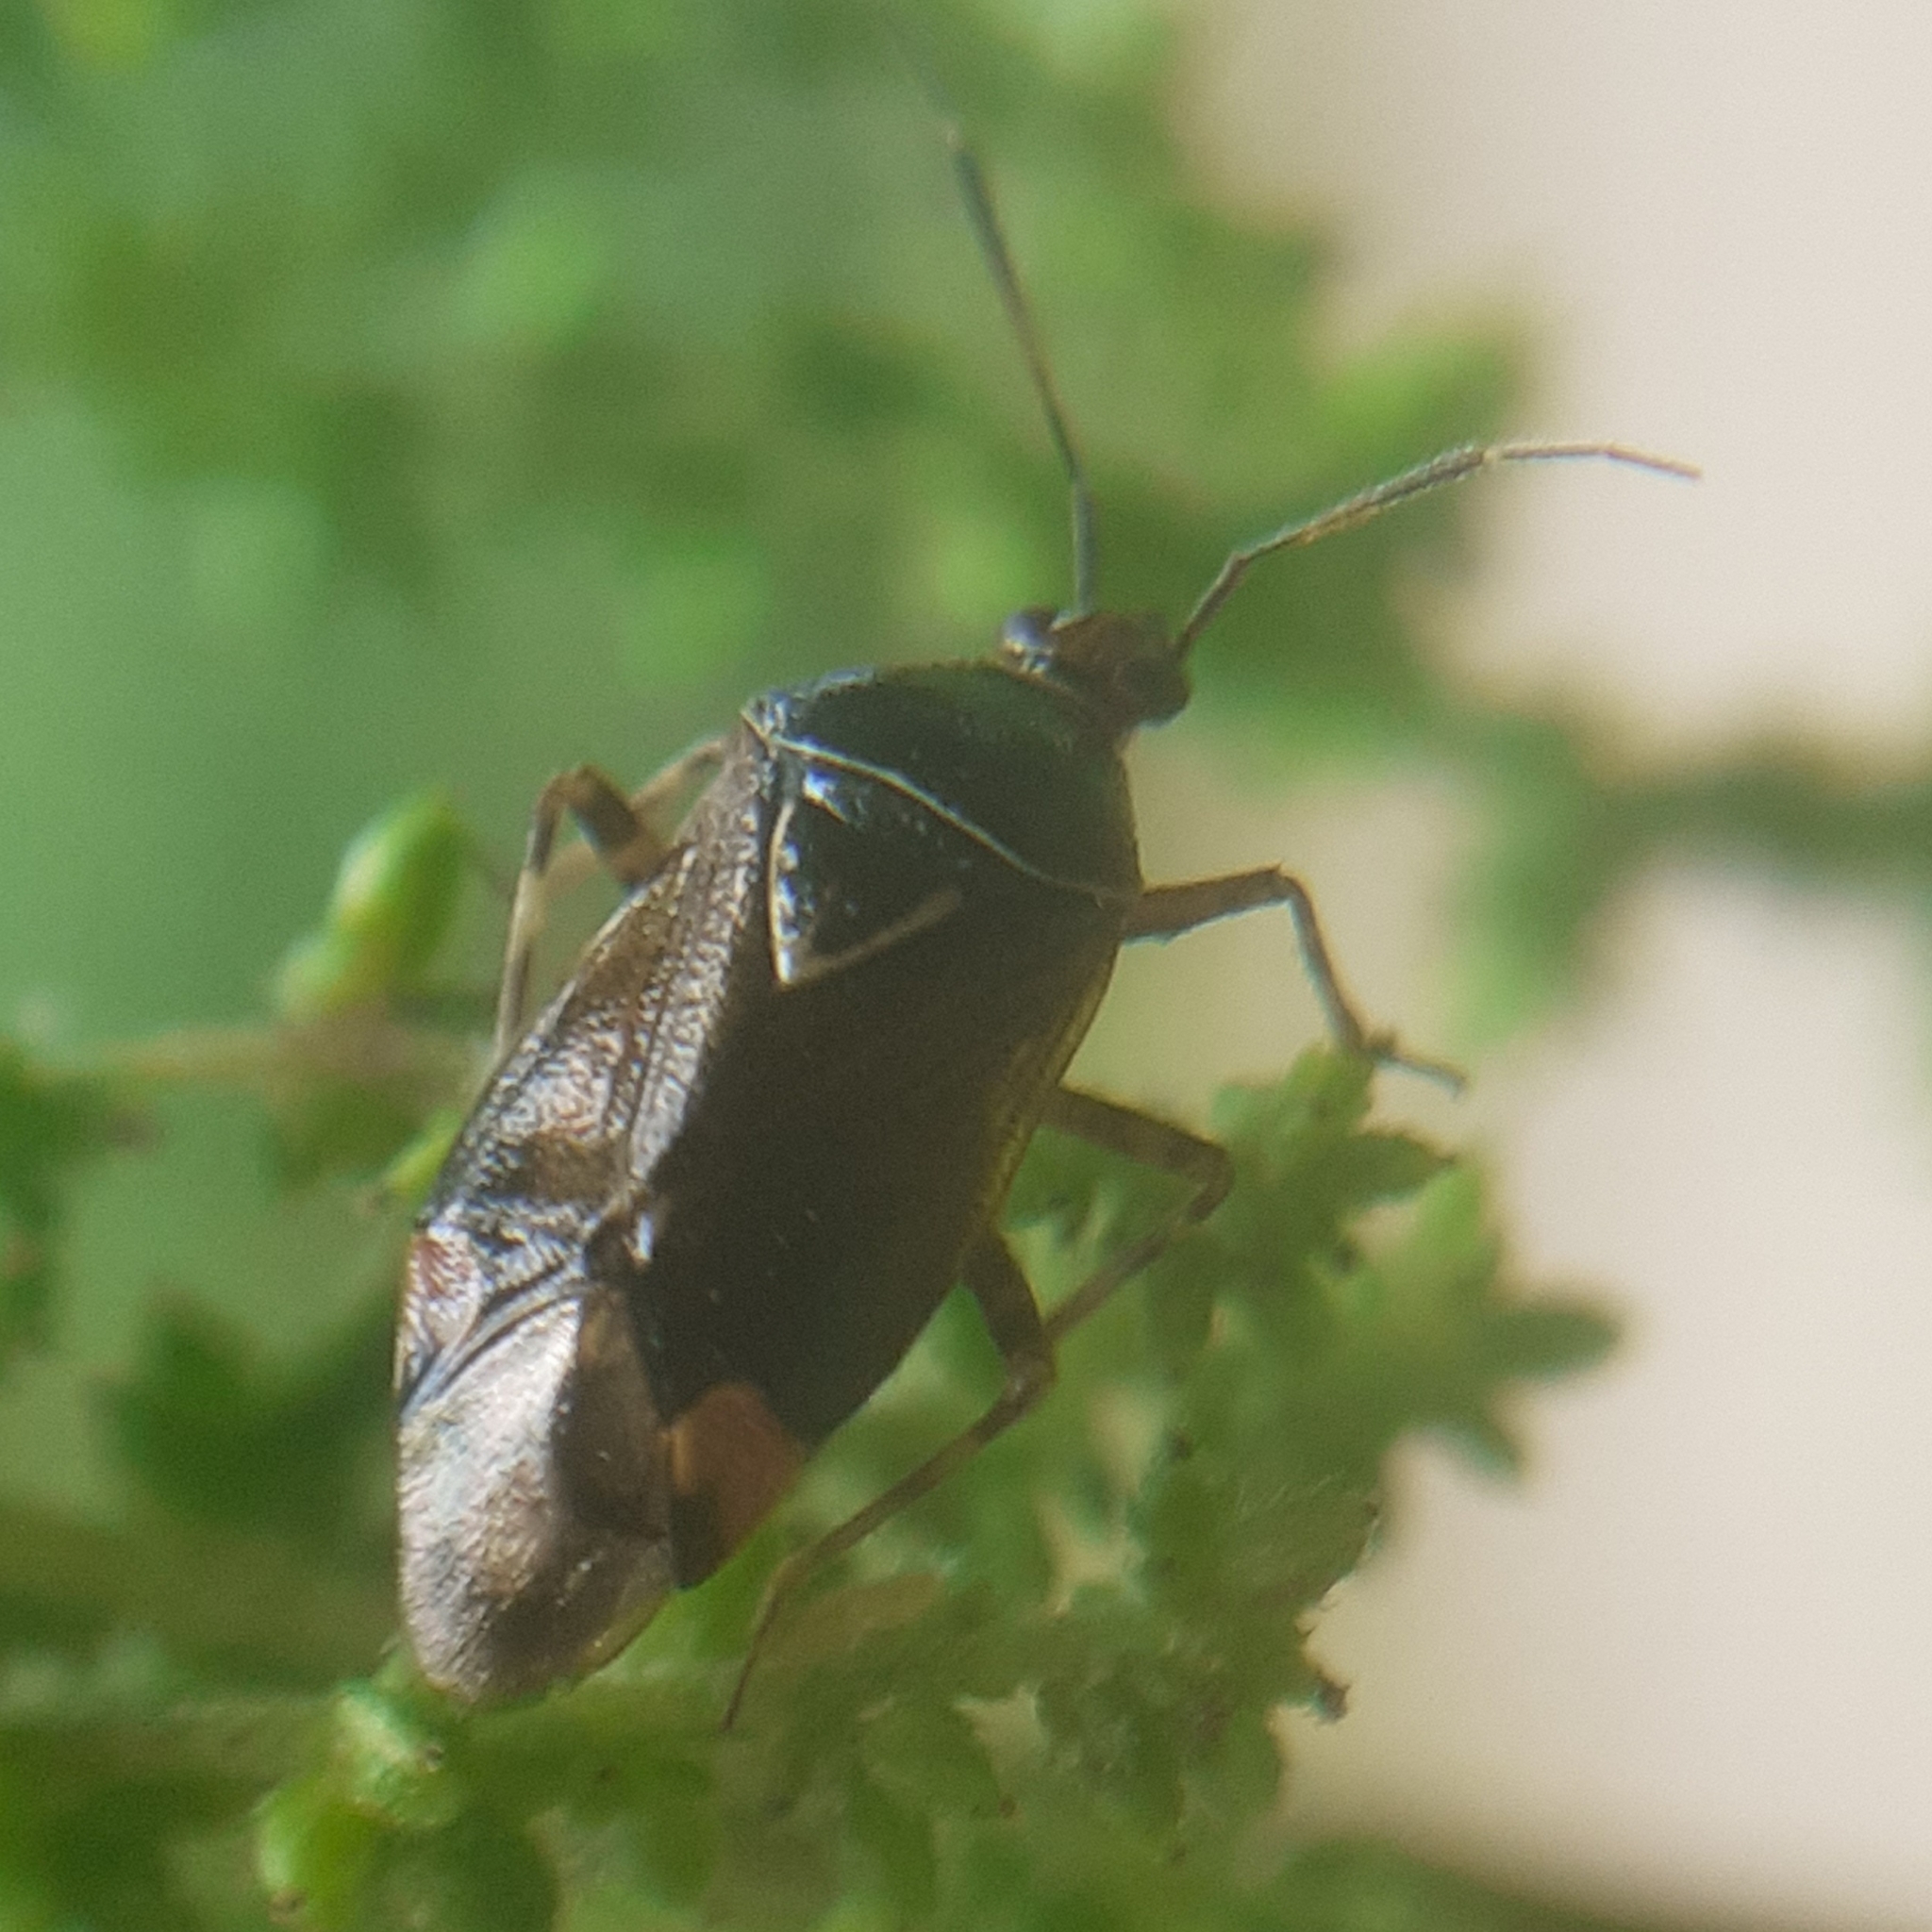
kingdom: Animalia
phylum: Arthropoda
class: Insecta
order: Hemiptera
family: Miridae
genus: Deraeocoris
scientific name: Deraeocoris flavilinea
